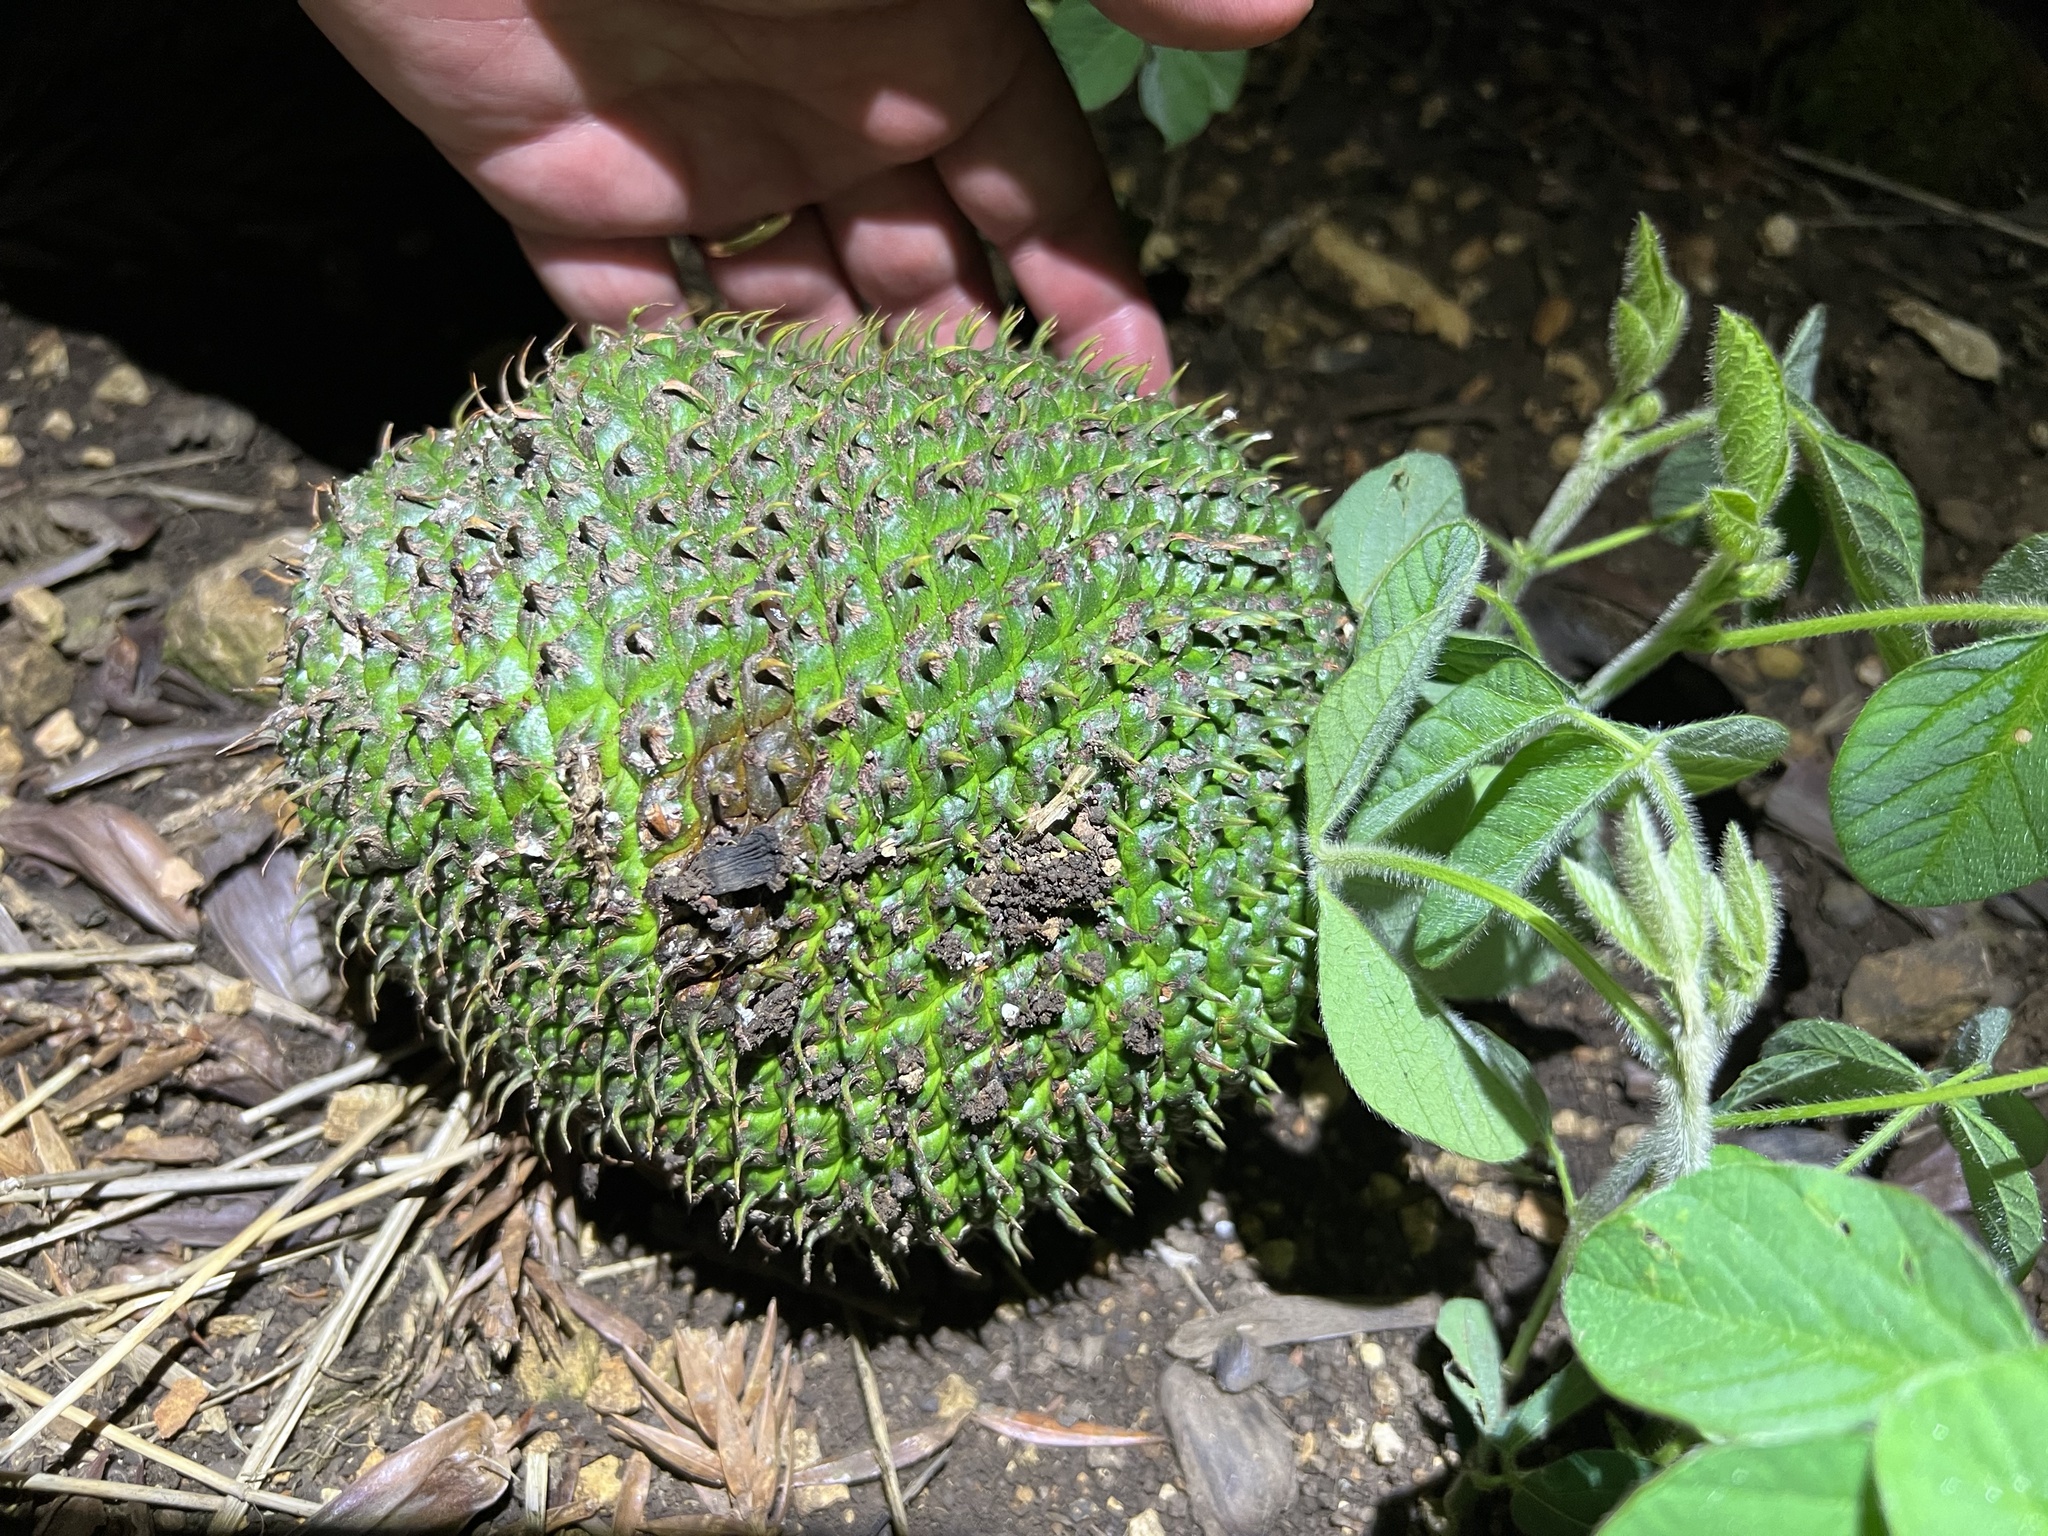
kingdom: Plantae
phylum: Tracheophyta
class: Pinopsida
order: Pinales
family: Araucariaceae
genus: Araucaria
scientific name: Araucaria angustifolia
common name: Candelabra tree
